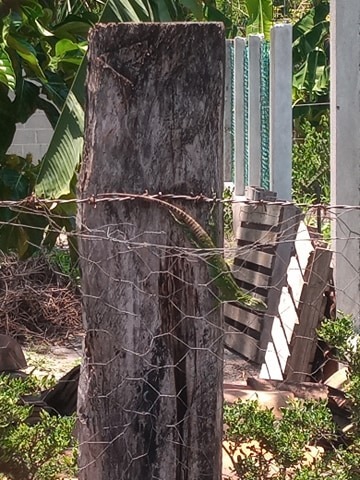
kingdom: Animalia
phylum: Chordata
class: Squamata
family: Iguanidae
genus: Ctenosaura
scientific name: Ctenosaura acanthura
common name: Northeastern spinytail iguana
